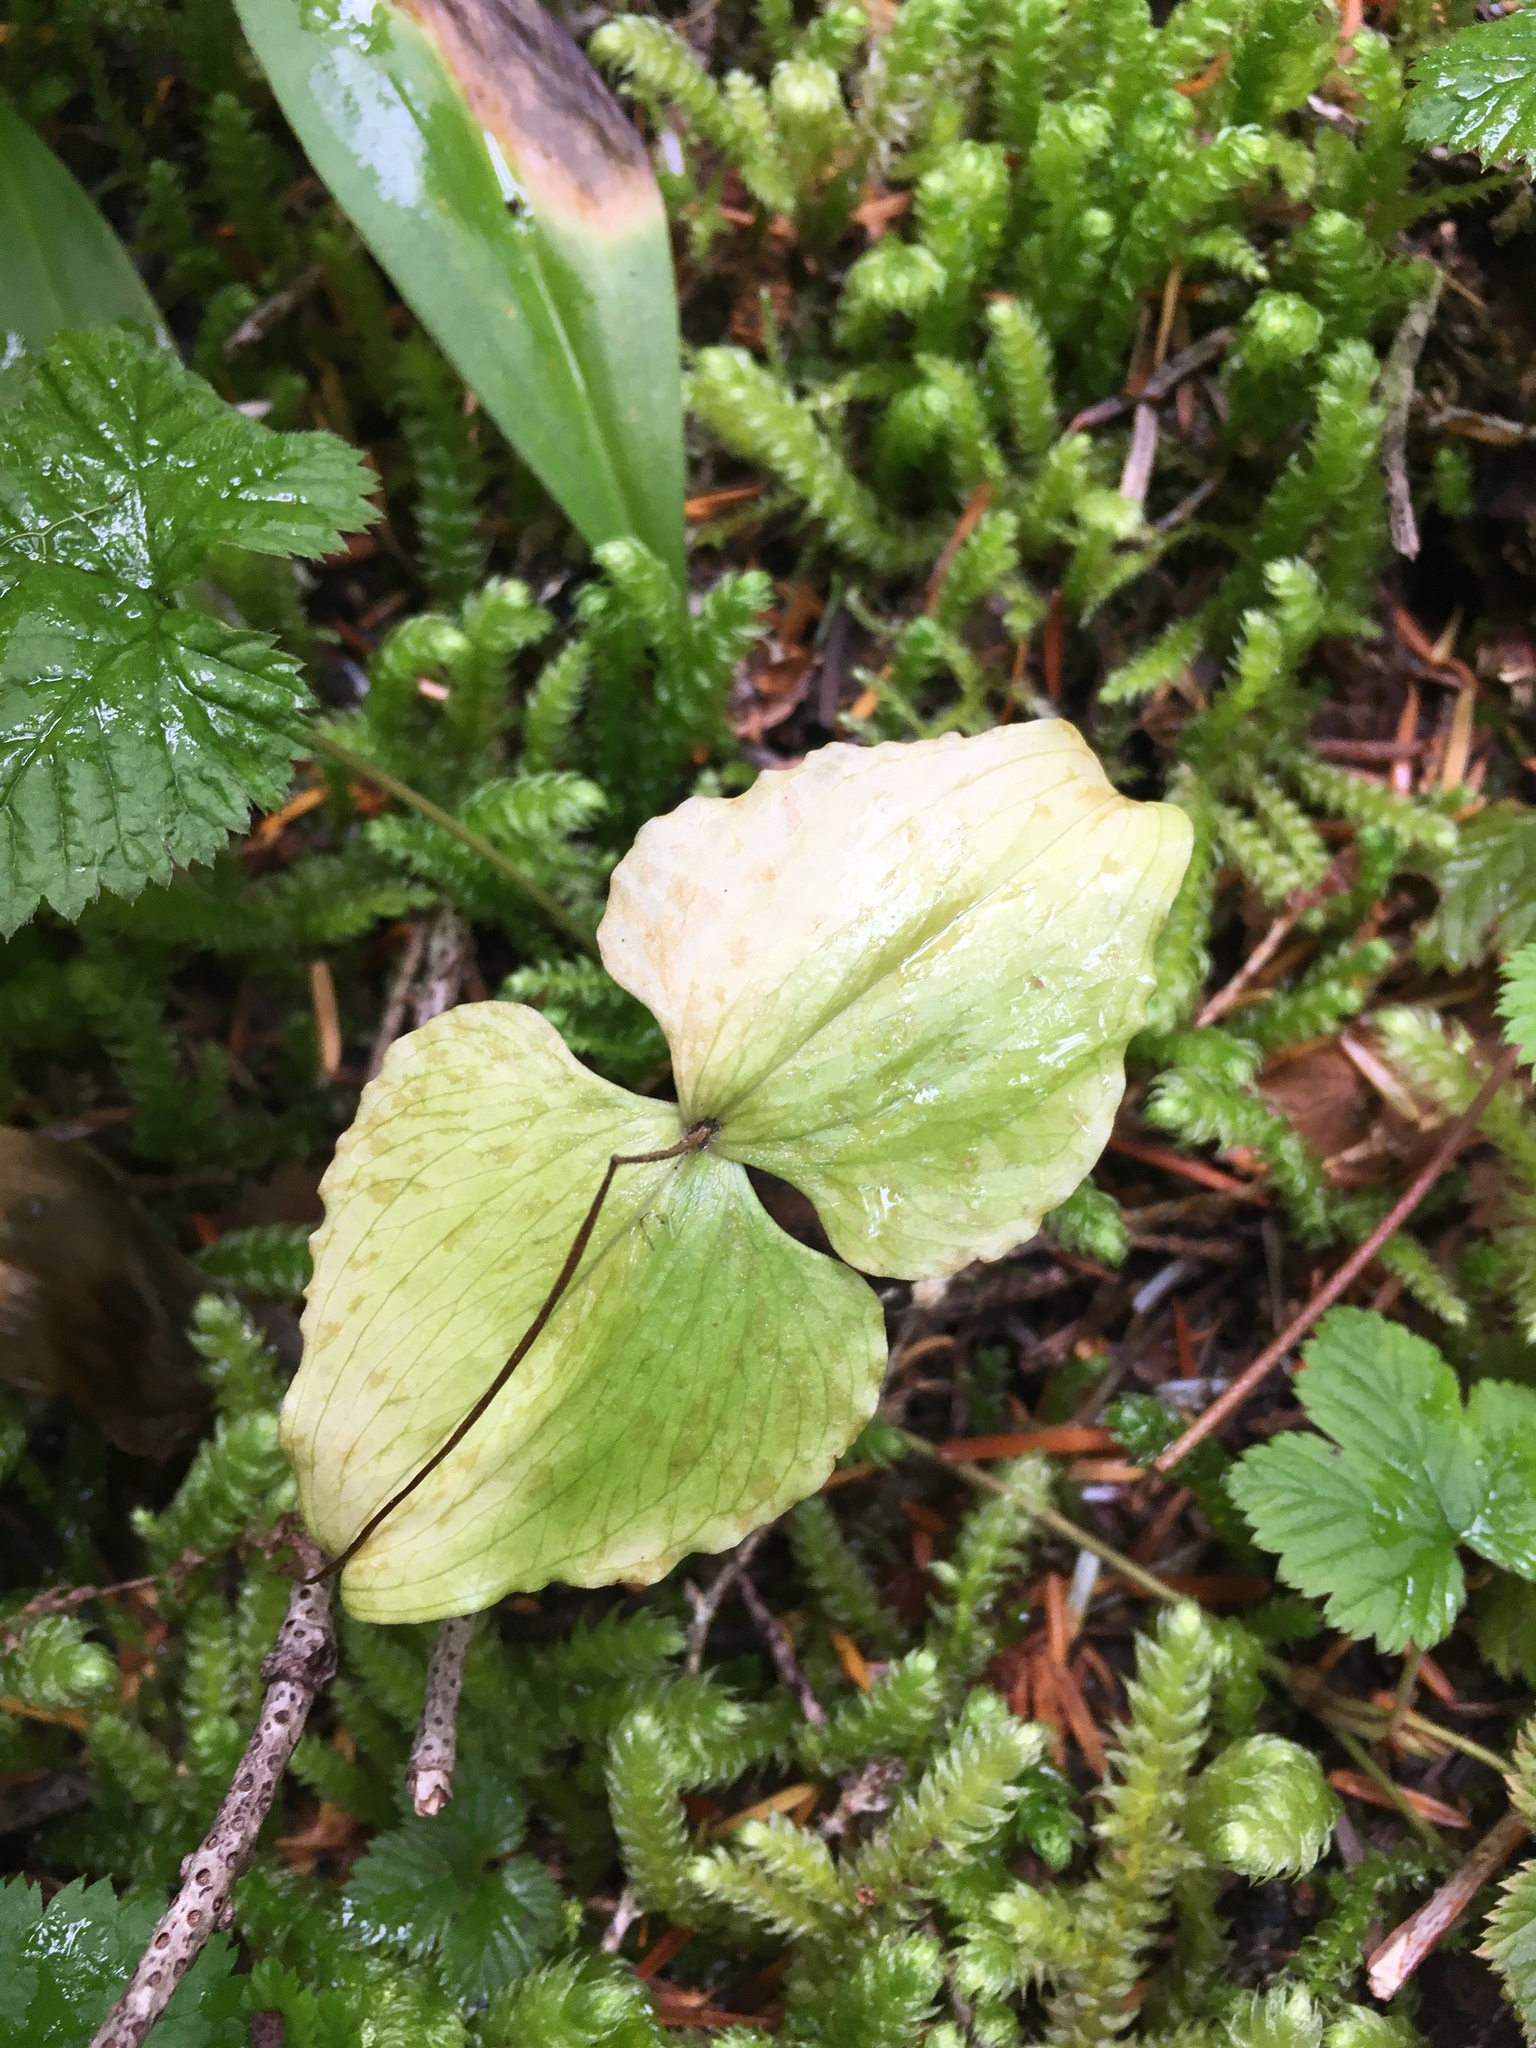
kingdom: Plantae
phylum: Tracheophyta
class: Liliopsida
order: Asparagales
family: Orchidaceae
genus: Neottia
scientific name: Neottia cordata
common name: Lesser twayblade
